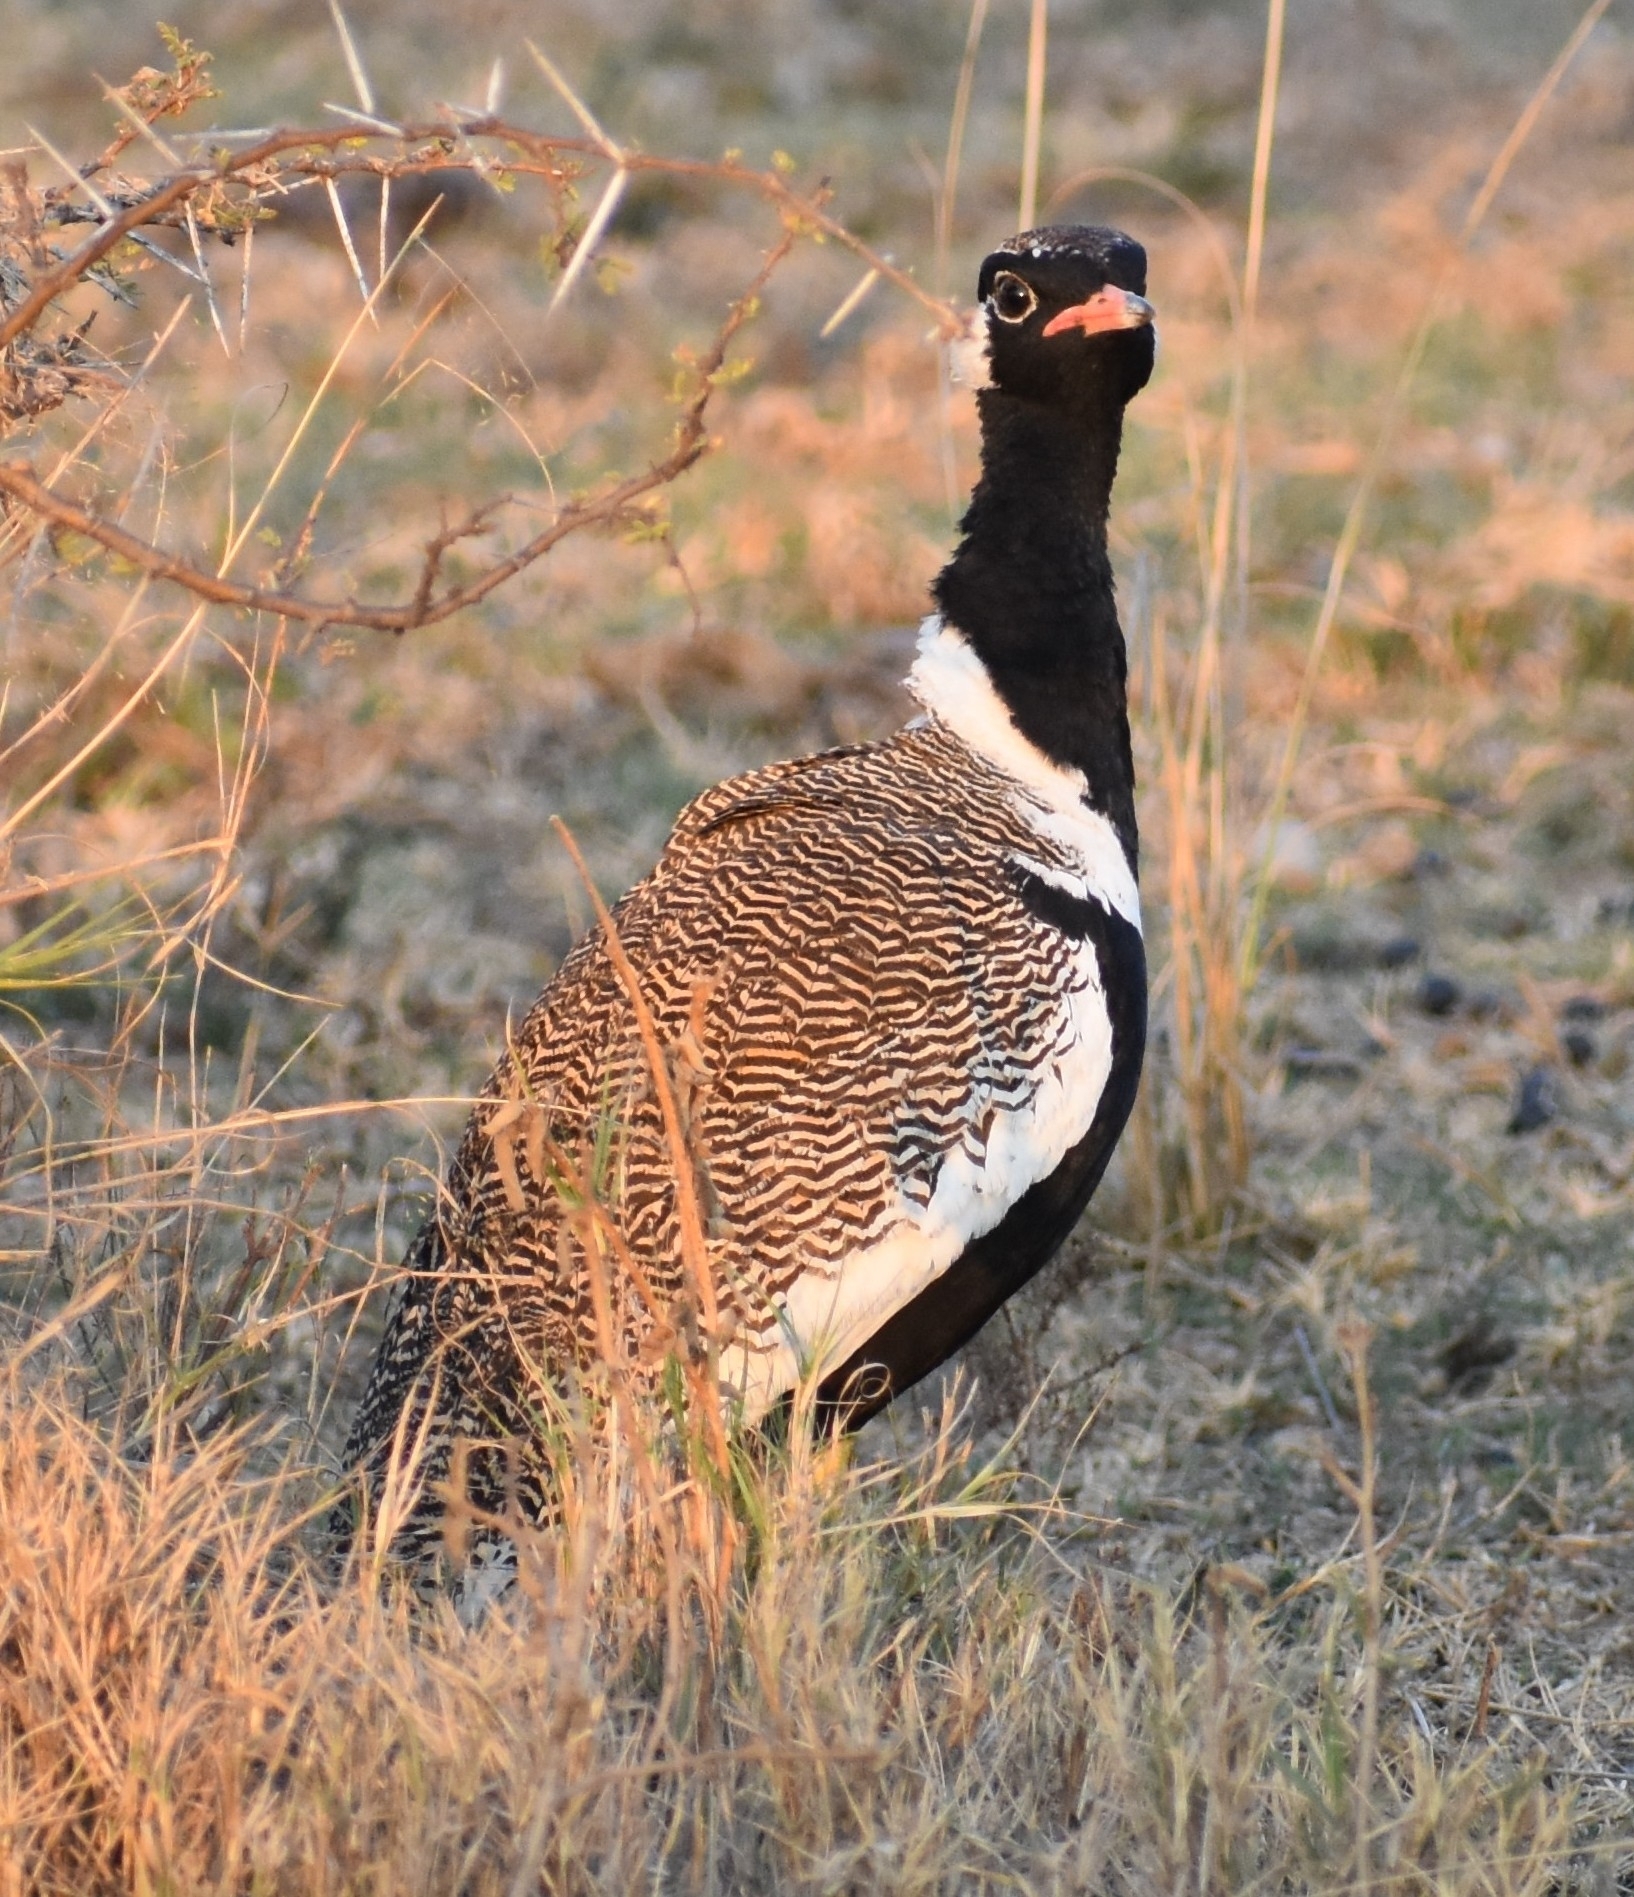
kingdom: Animalia
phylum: Chordata
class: Aves
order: Otidiformes
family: Otididae
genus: Afrotis
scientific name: Afrotis afraoides
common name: Northern black korhaan
